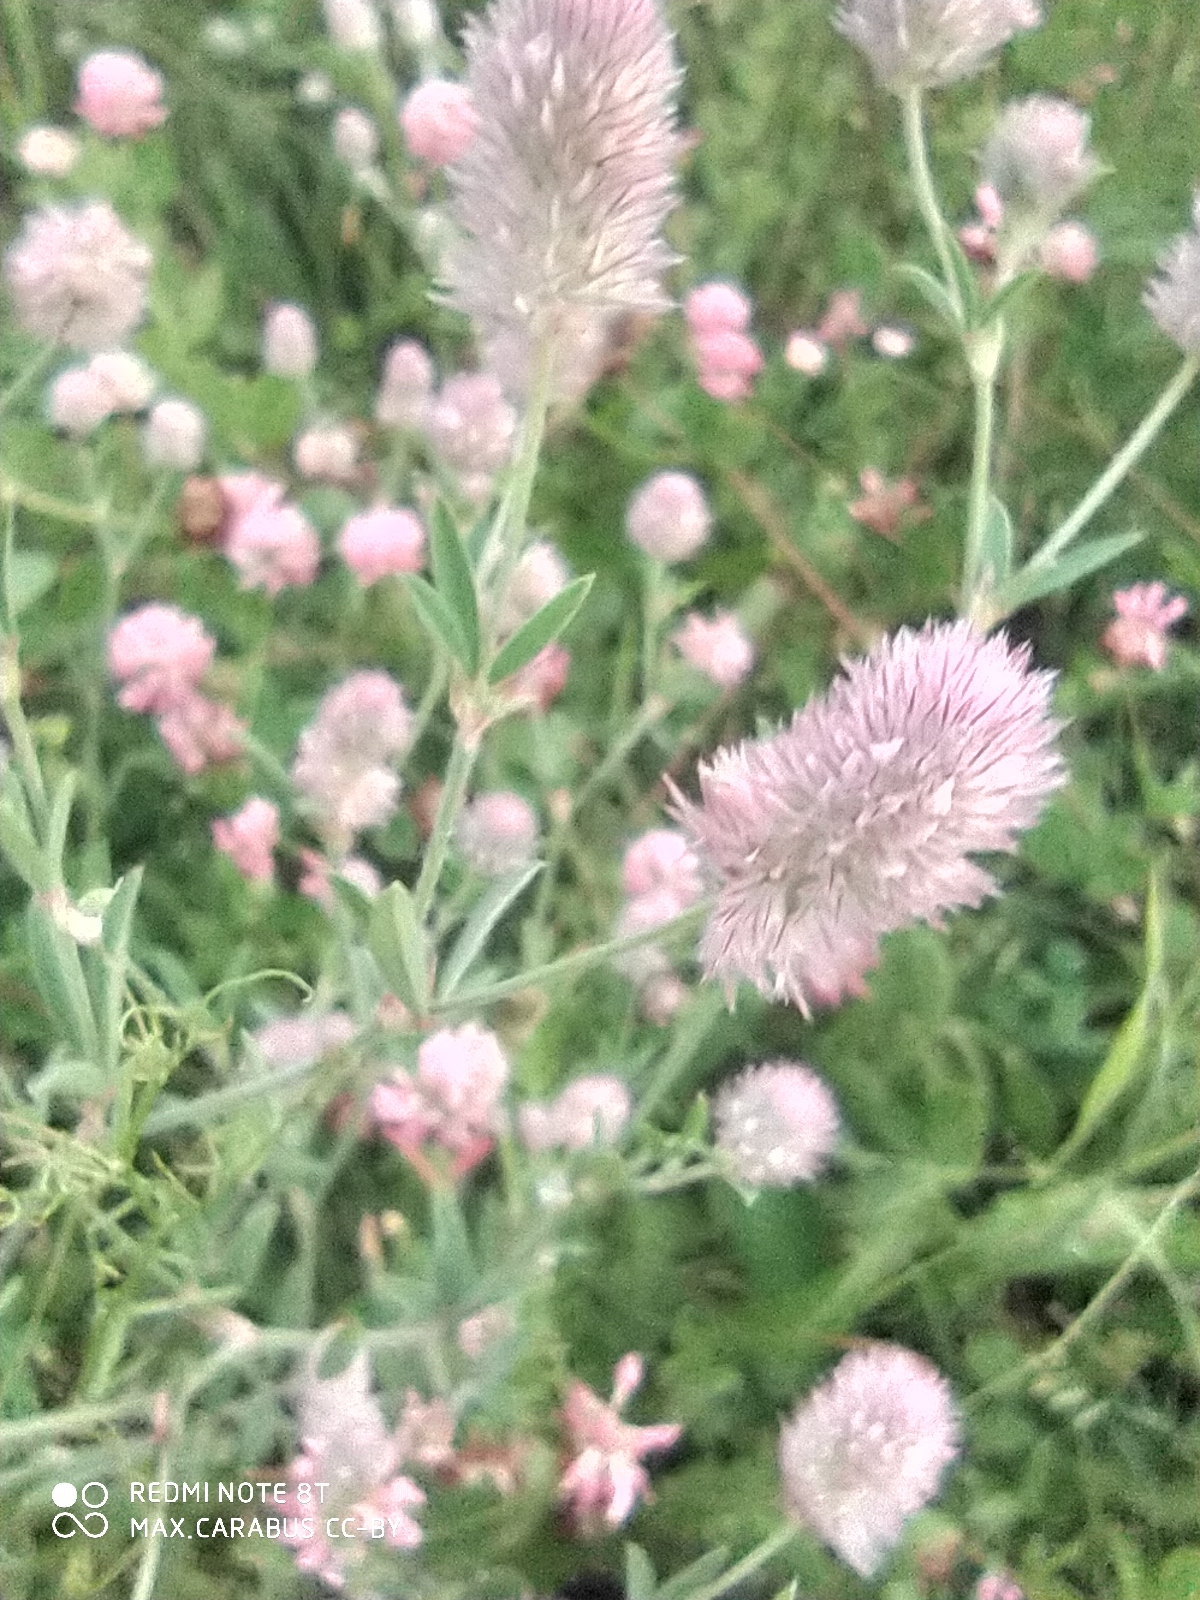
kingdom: Plantae
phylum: Tracheophyta
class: Magnoliopsida
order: Fabales
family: Fabaceae
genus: Trifolium
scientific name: Trifolium arvense
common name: Hare's-foot clover
